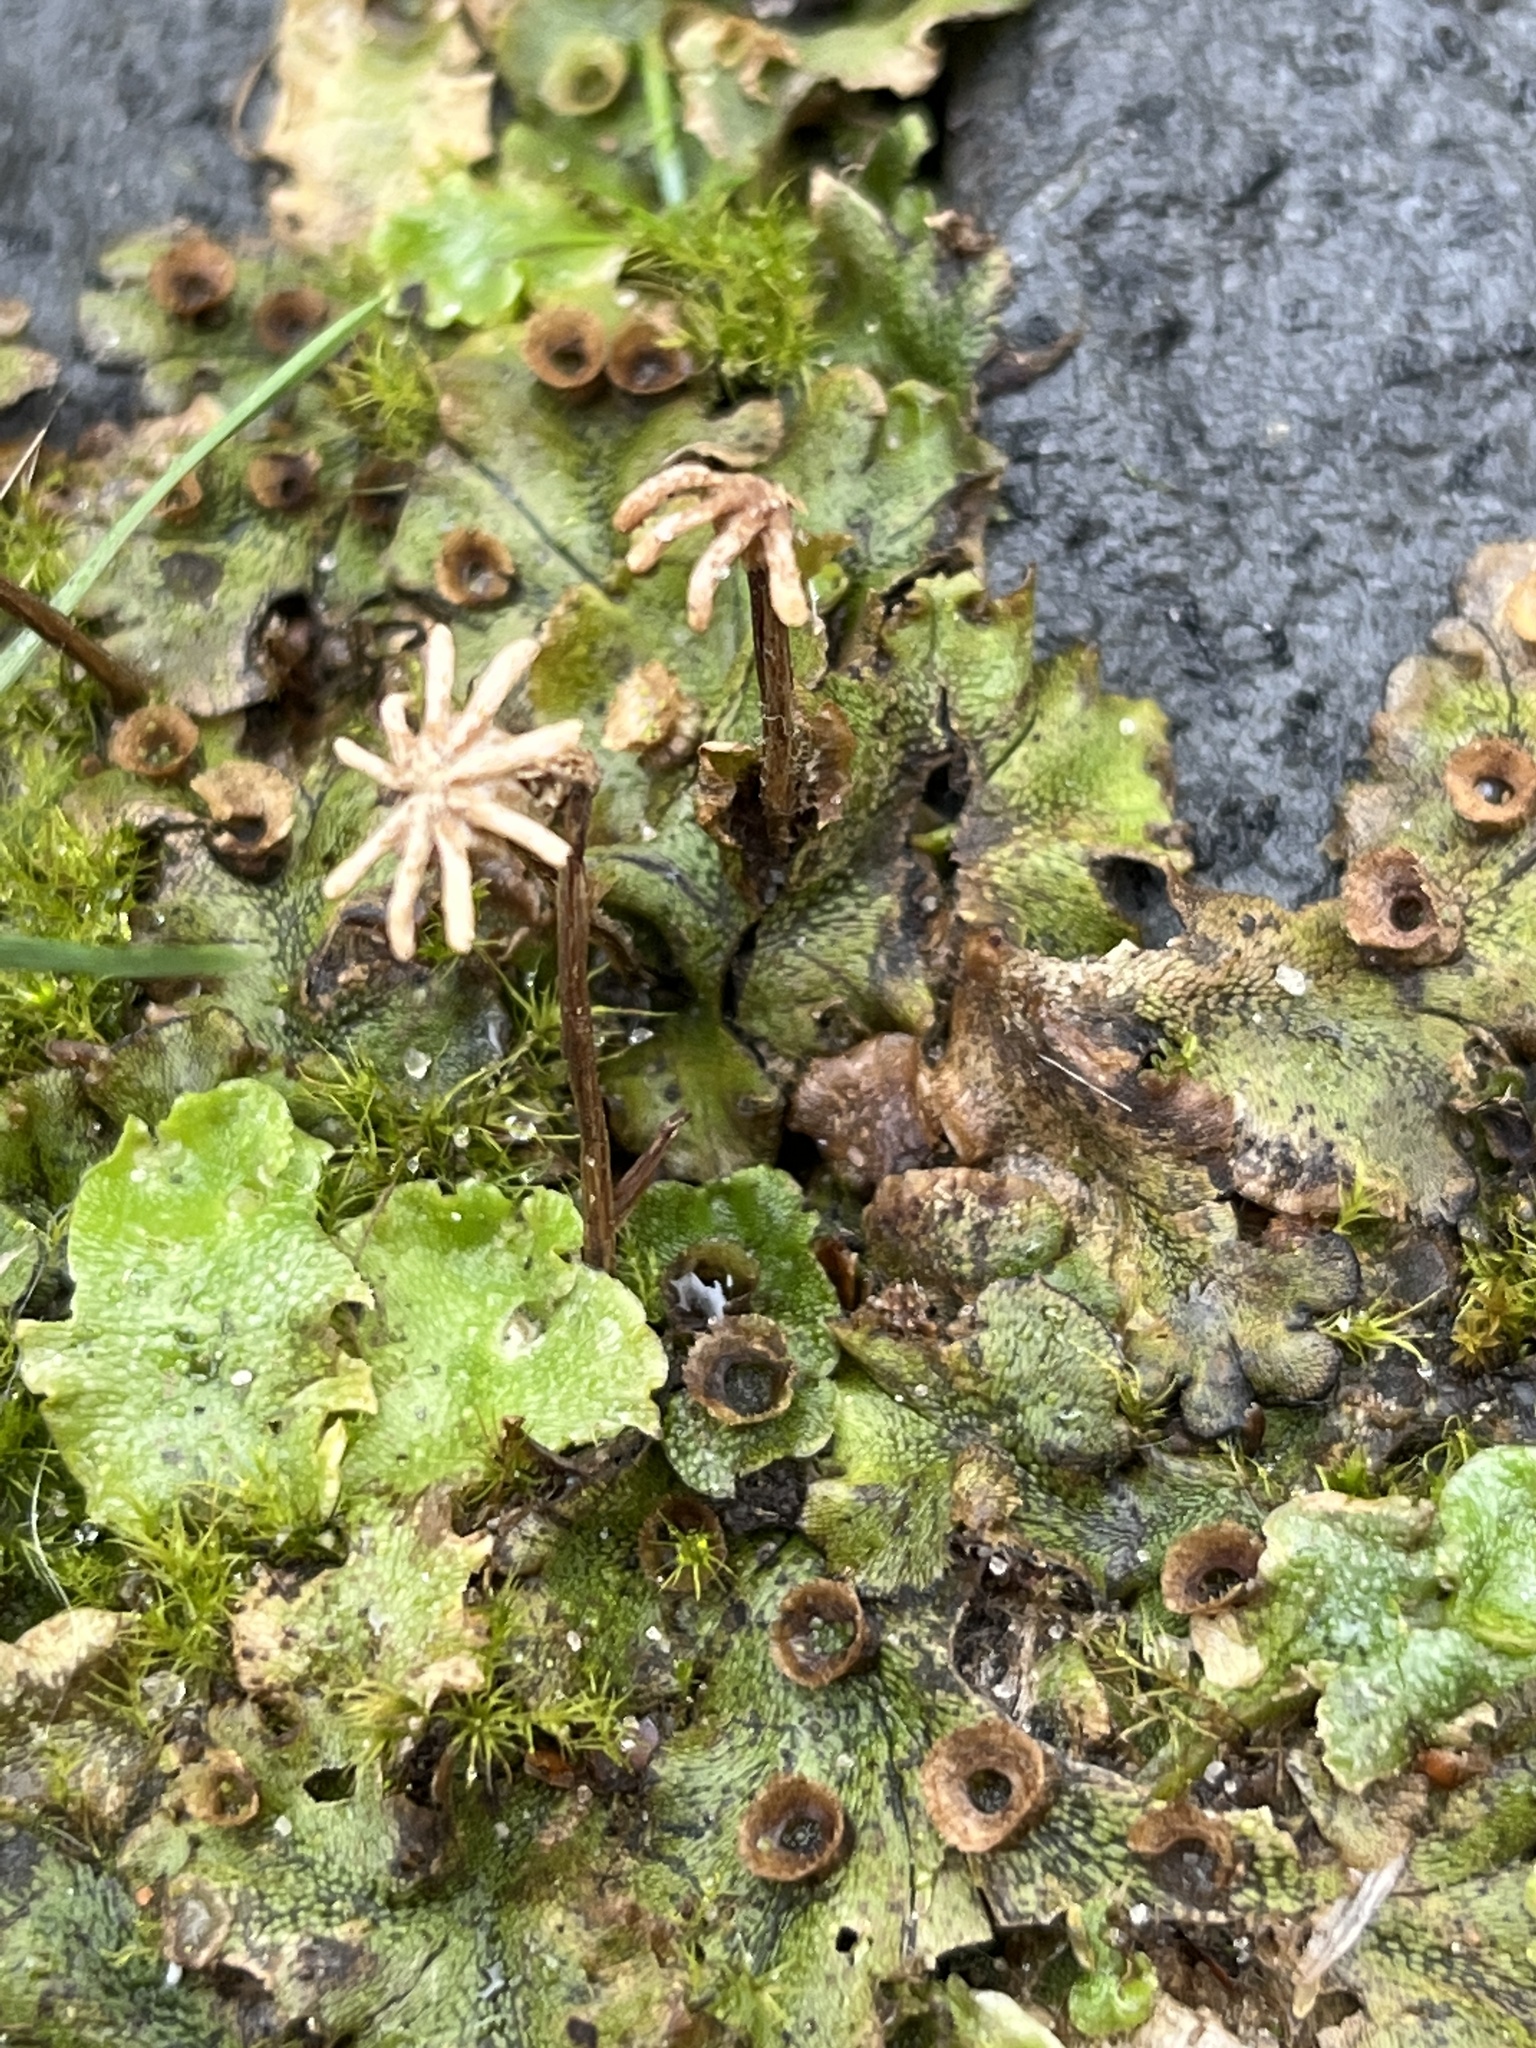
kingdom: Plantae
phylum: Marchantiophyta
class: Marchantiopsida
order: Marchantiales
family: Marchantiaceae
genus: Marchantia
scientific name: Marchantia polymorpha
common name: Common liverwort
